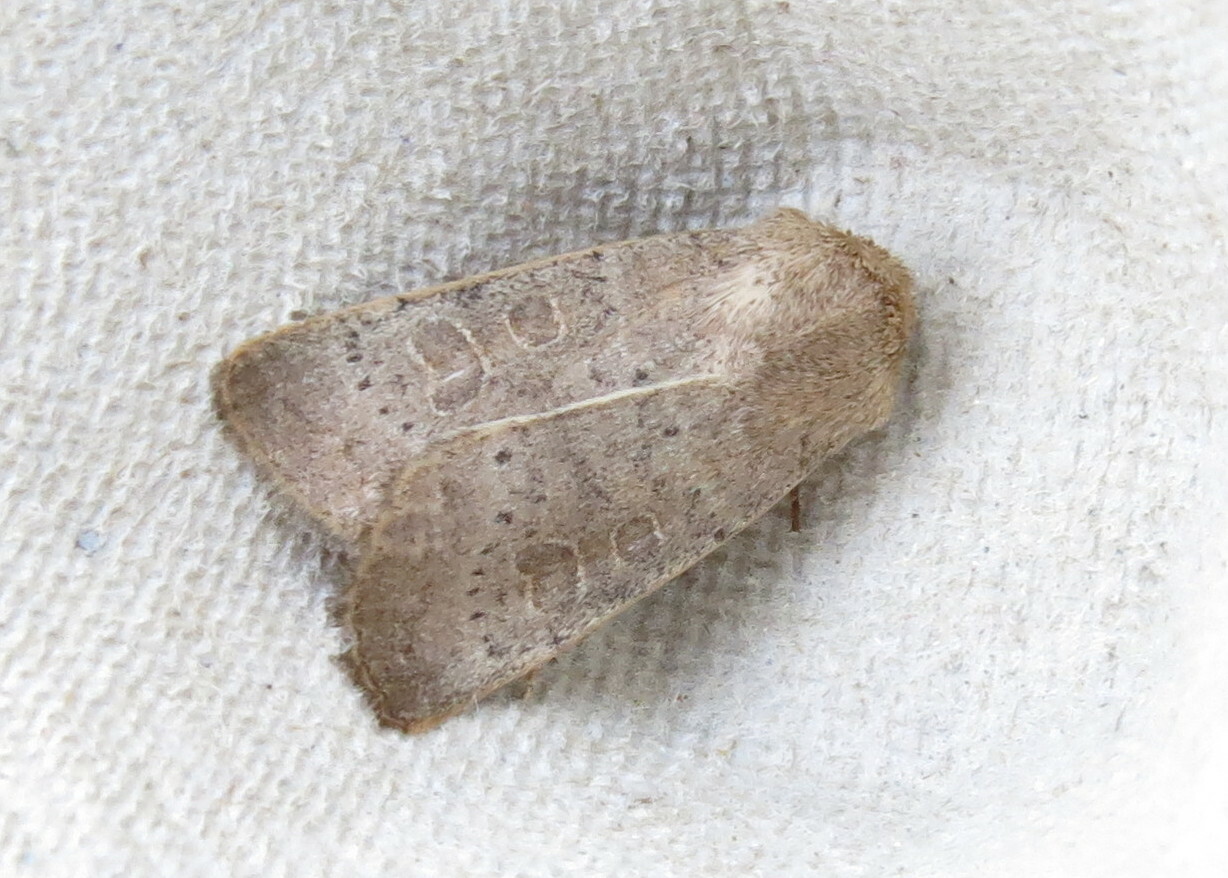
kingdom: Animalia
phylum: Arthropoda
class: Insecta
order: Lepidoptera
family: Noctuidae
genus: Hoplodrina
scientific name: Hoplodrina ambigua
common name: Vine's rustic
